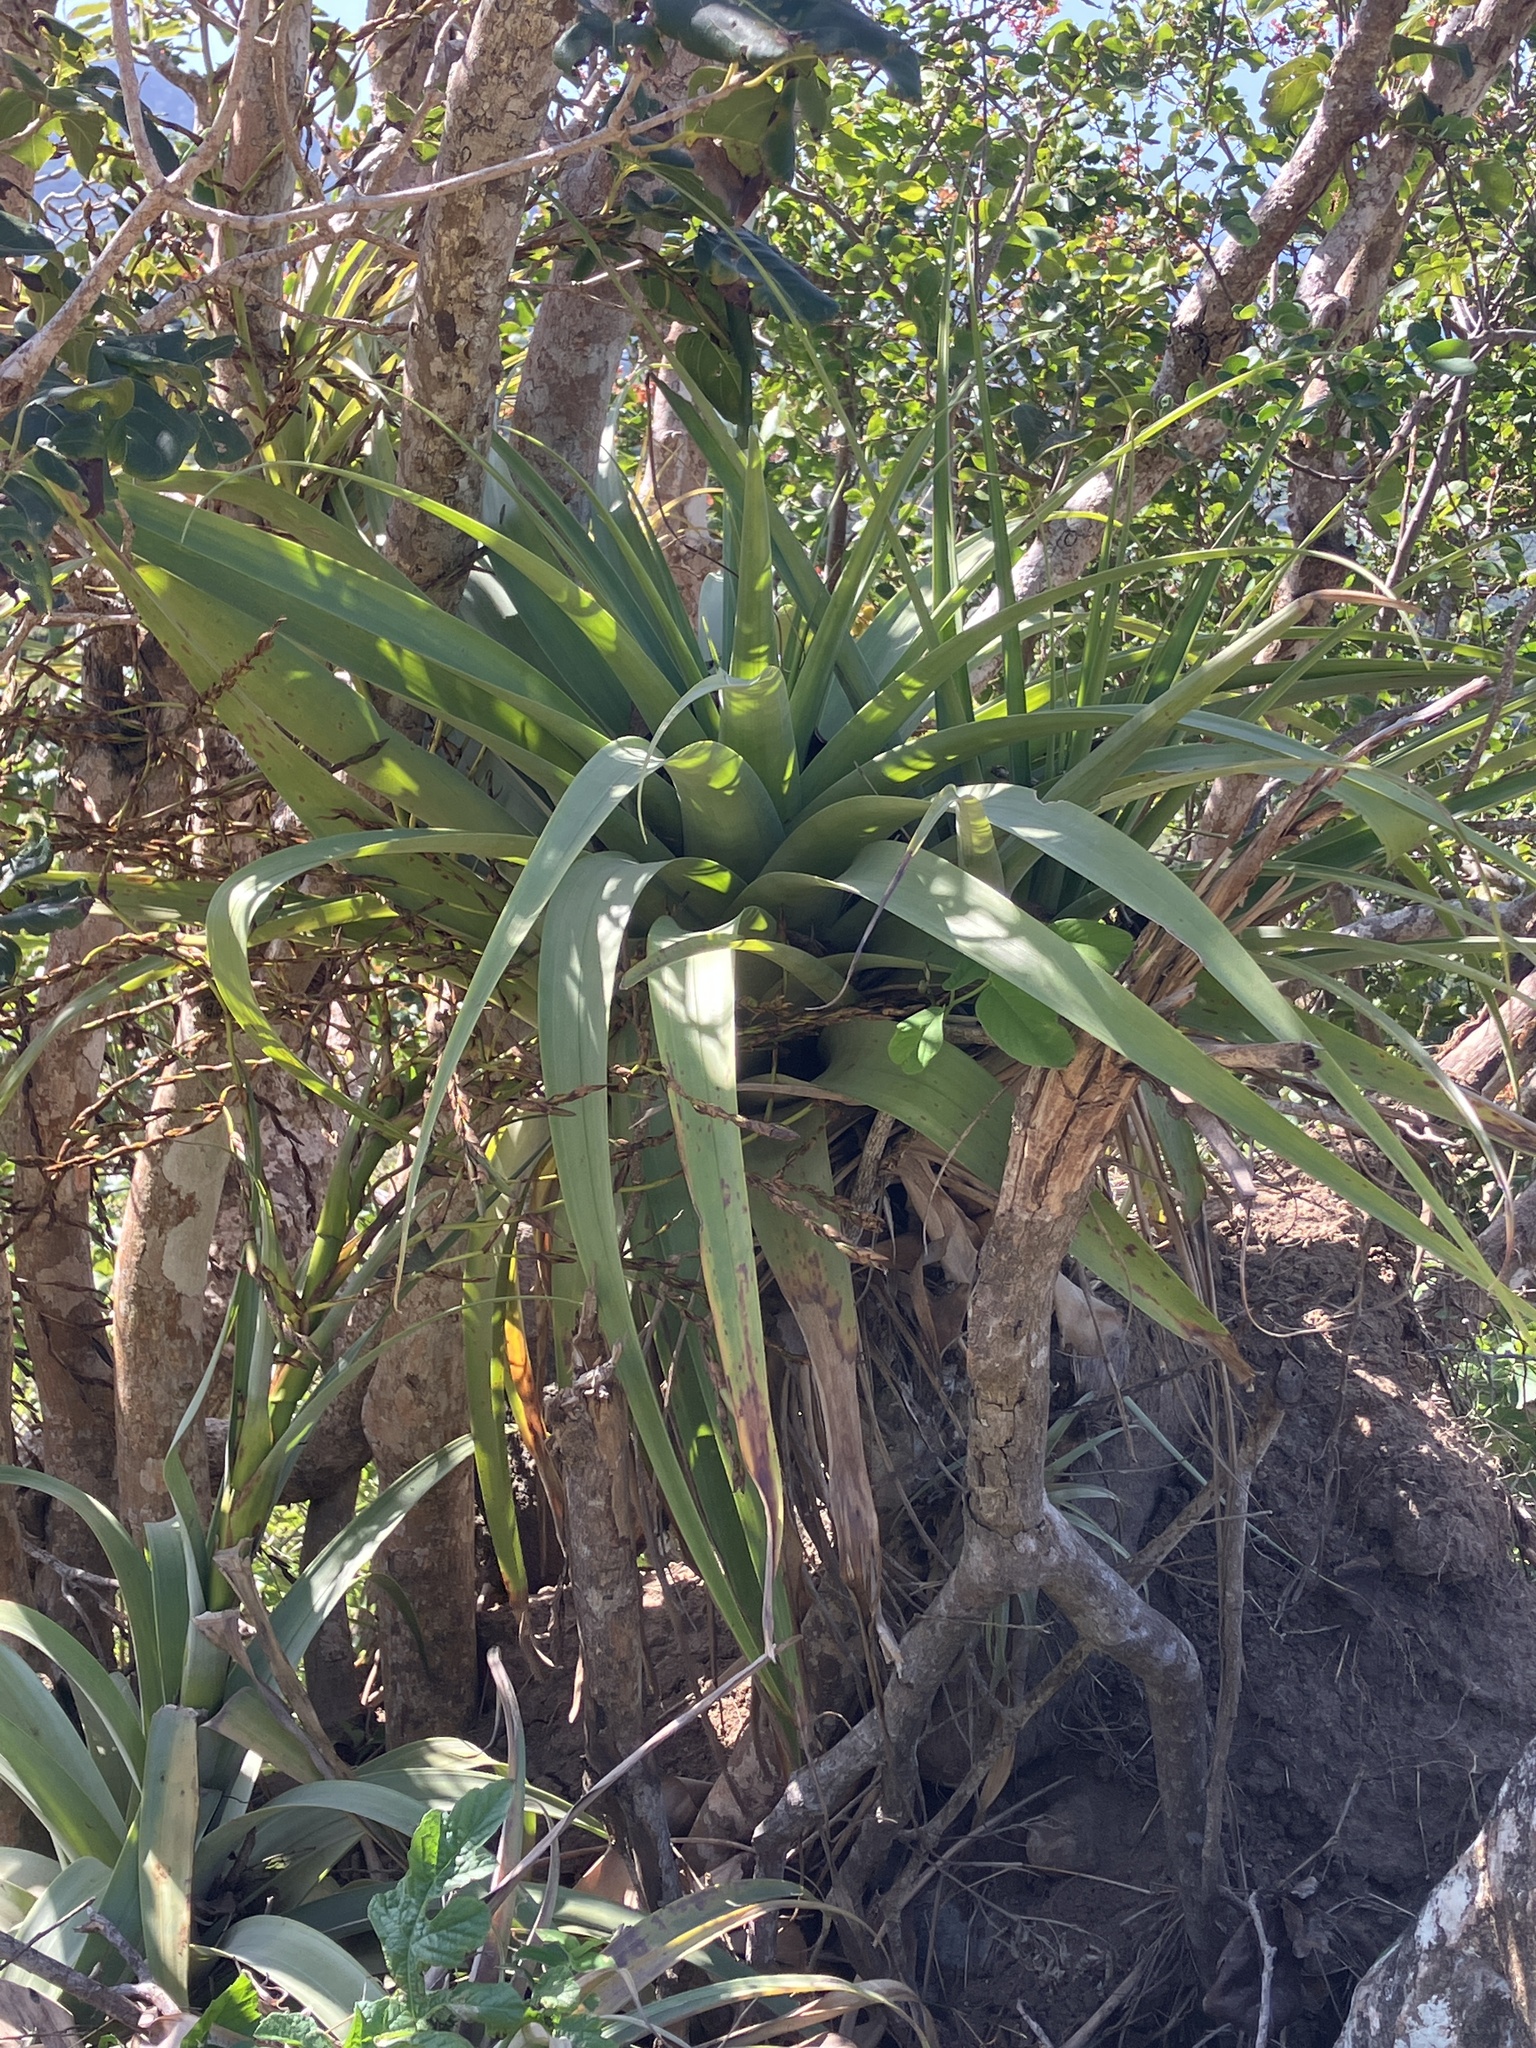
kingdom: Plantae
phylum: Tracheophyta
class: Liliopsida
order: Poales
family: Bromeliaceae
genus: Tillandsia
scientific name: Tillandsia utriculata
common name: Wild pine
